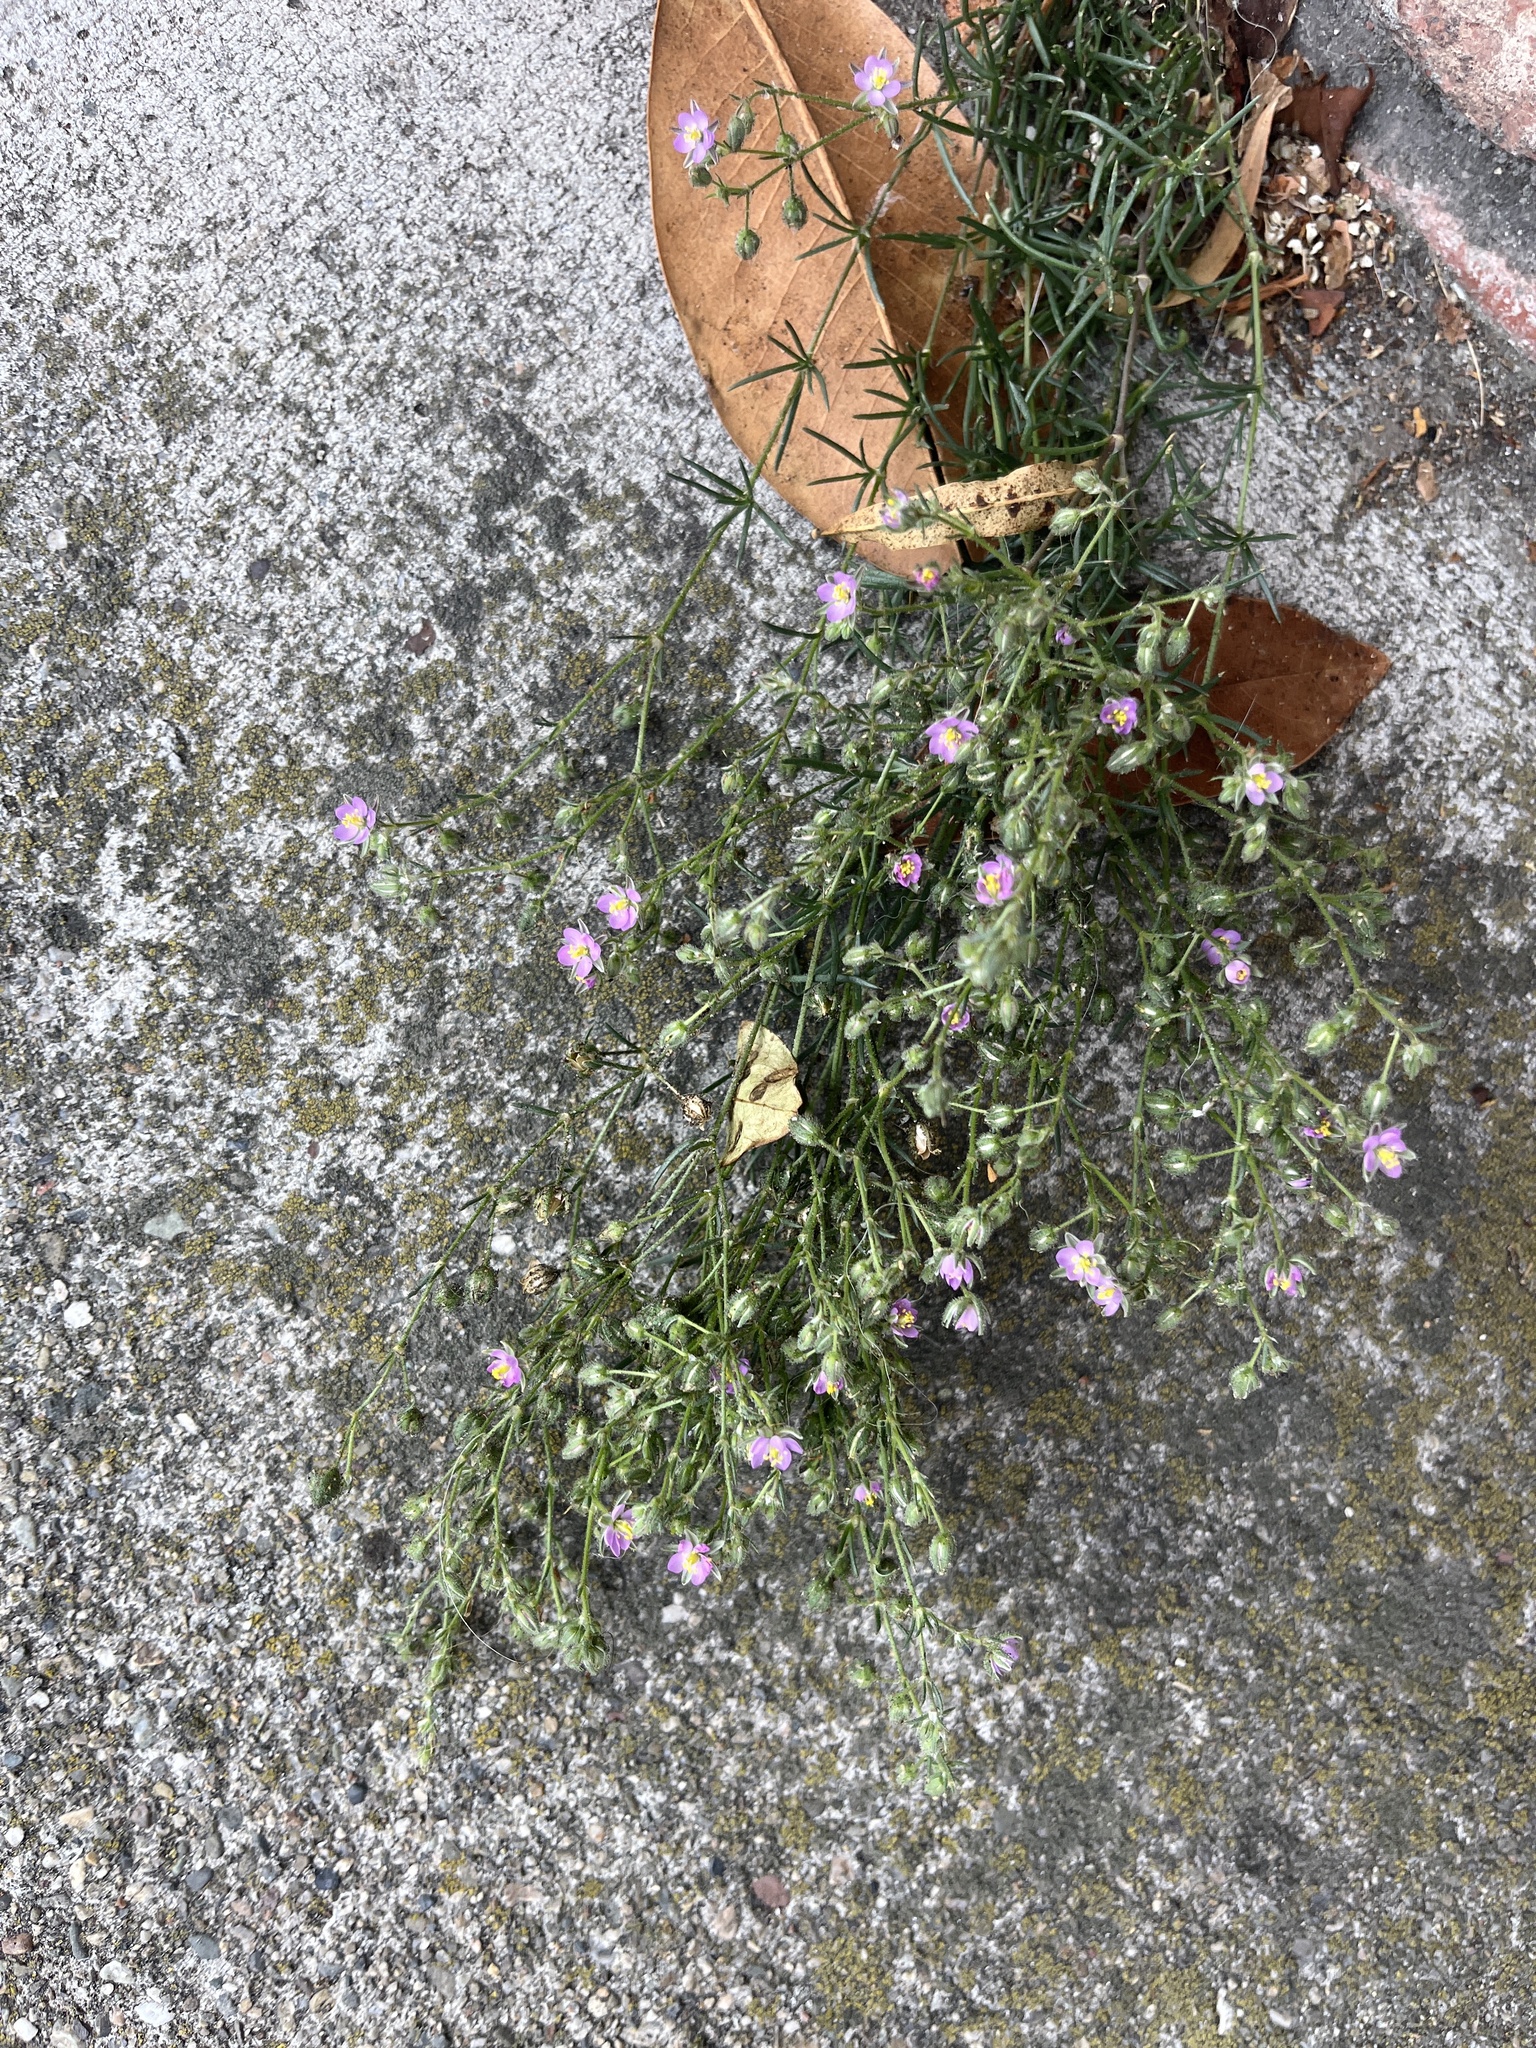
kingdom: Plantae
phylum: Tracheophyta
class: Magnoliopsida
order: Caryophyllales
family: Caryophyllaceae
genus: Spergularia
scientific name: Spergularia rubra
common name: Red sand-spurrey
